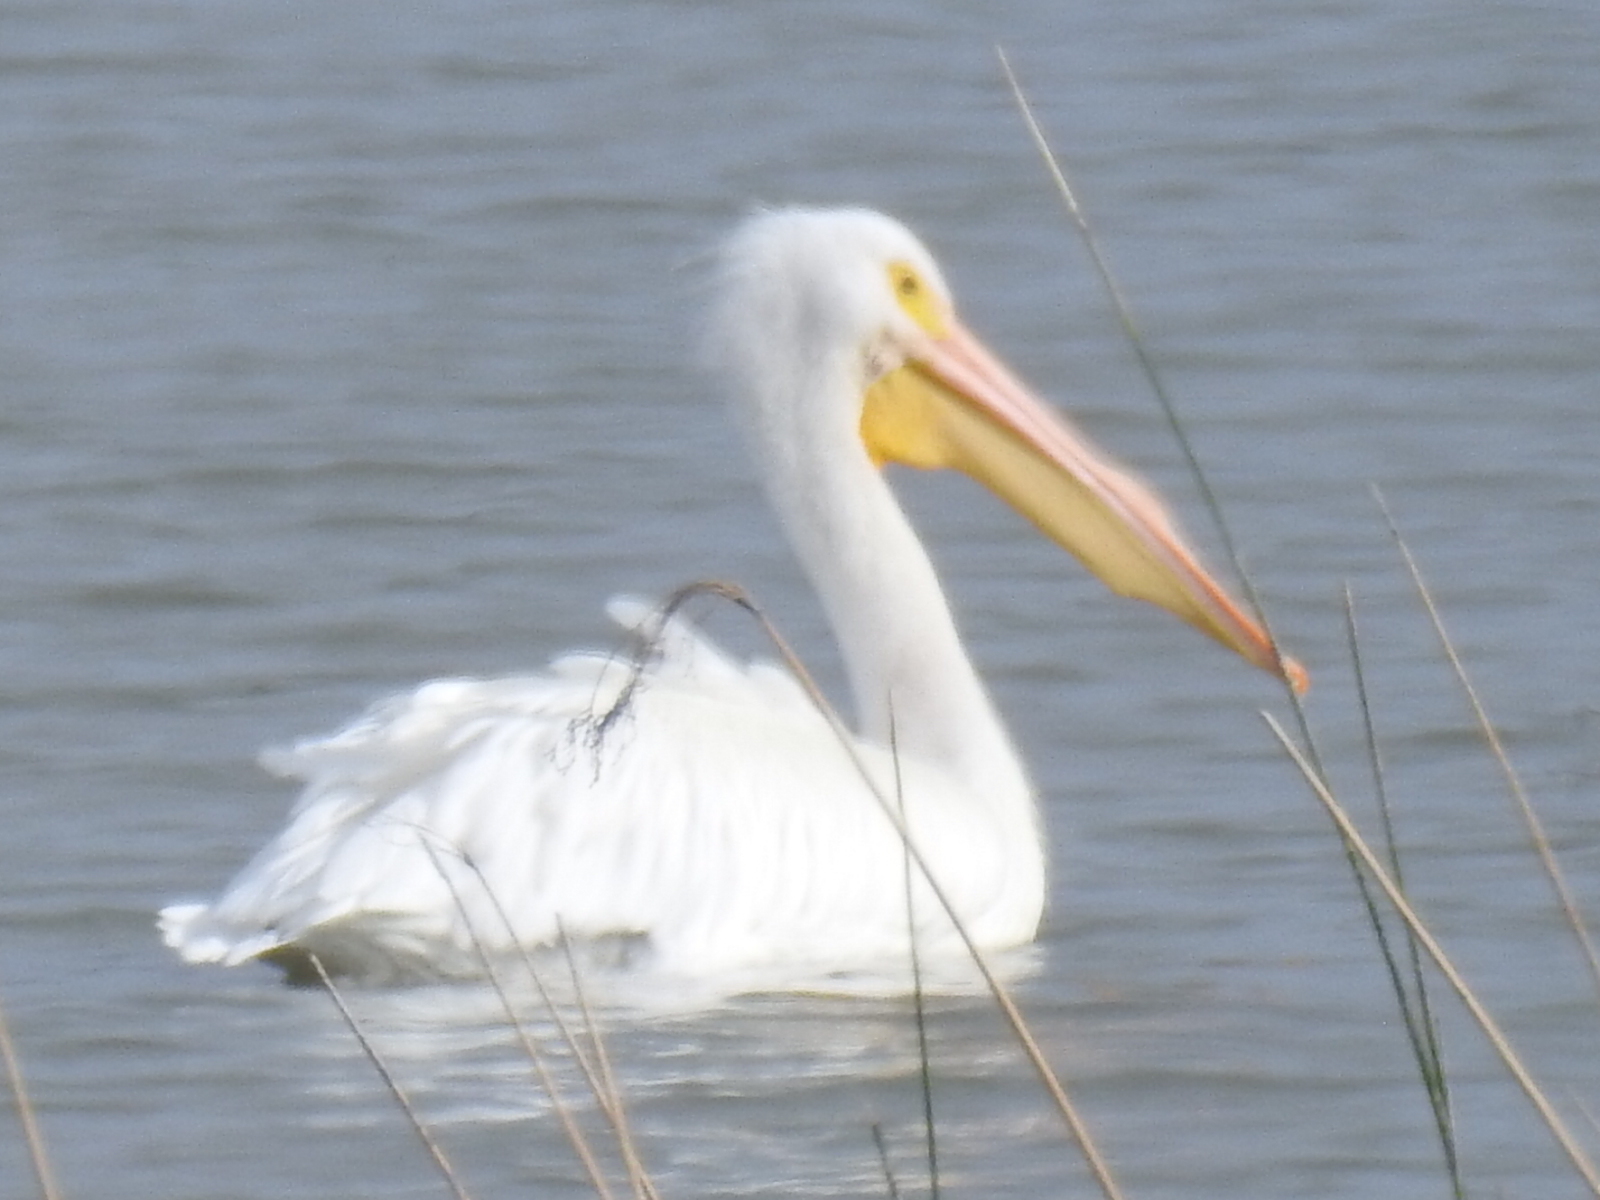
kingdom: Animalia
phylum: Chordata
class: Aves
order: Pelecaniformes
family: Pelecanidae
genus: Pelecanus
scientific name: Pelecanus erythrorhynchos
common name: American white pelican
